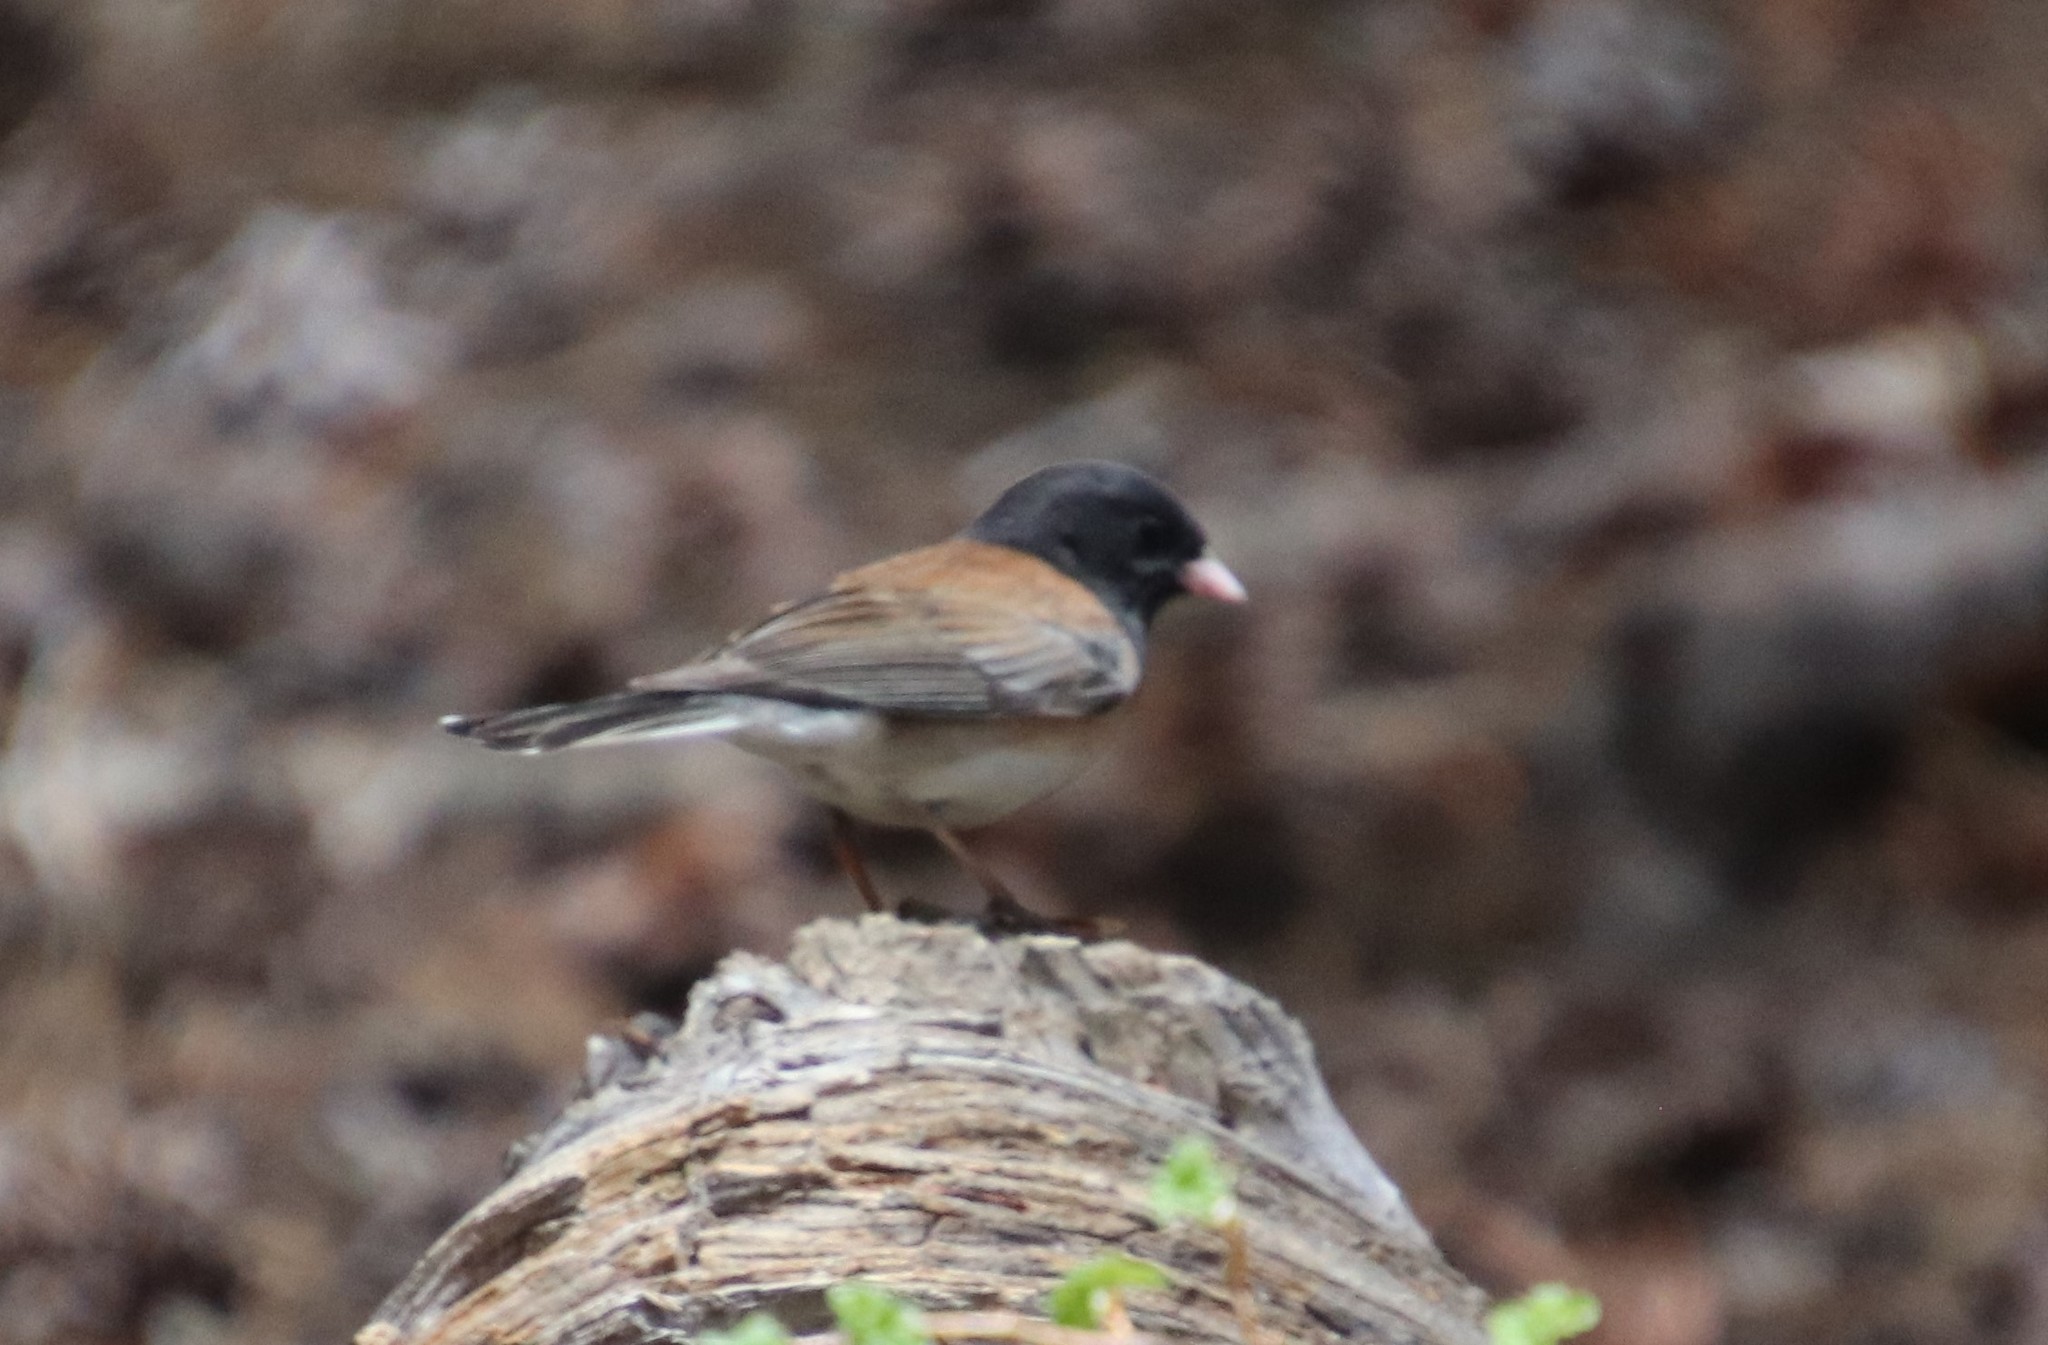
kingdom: Animalia
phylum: Chordata
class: Aves
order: Passeriformes
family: Passerellidae
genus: Junco
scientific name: Junco hyemalis
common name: Dark-eyed junco
